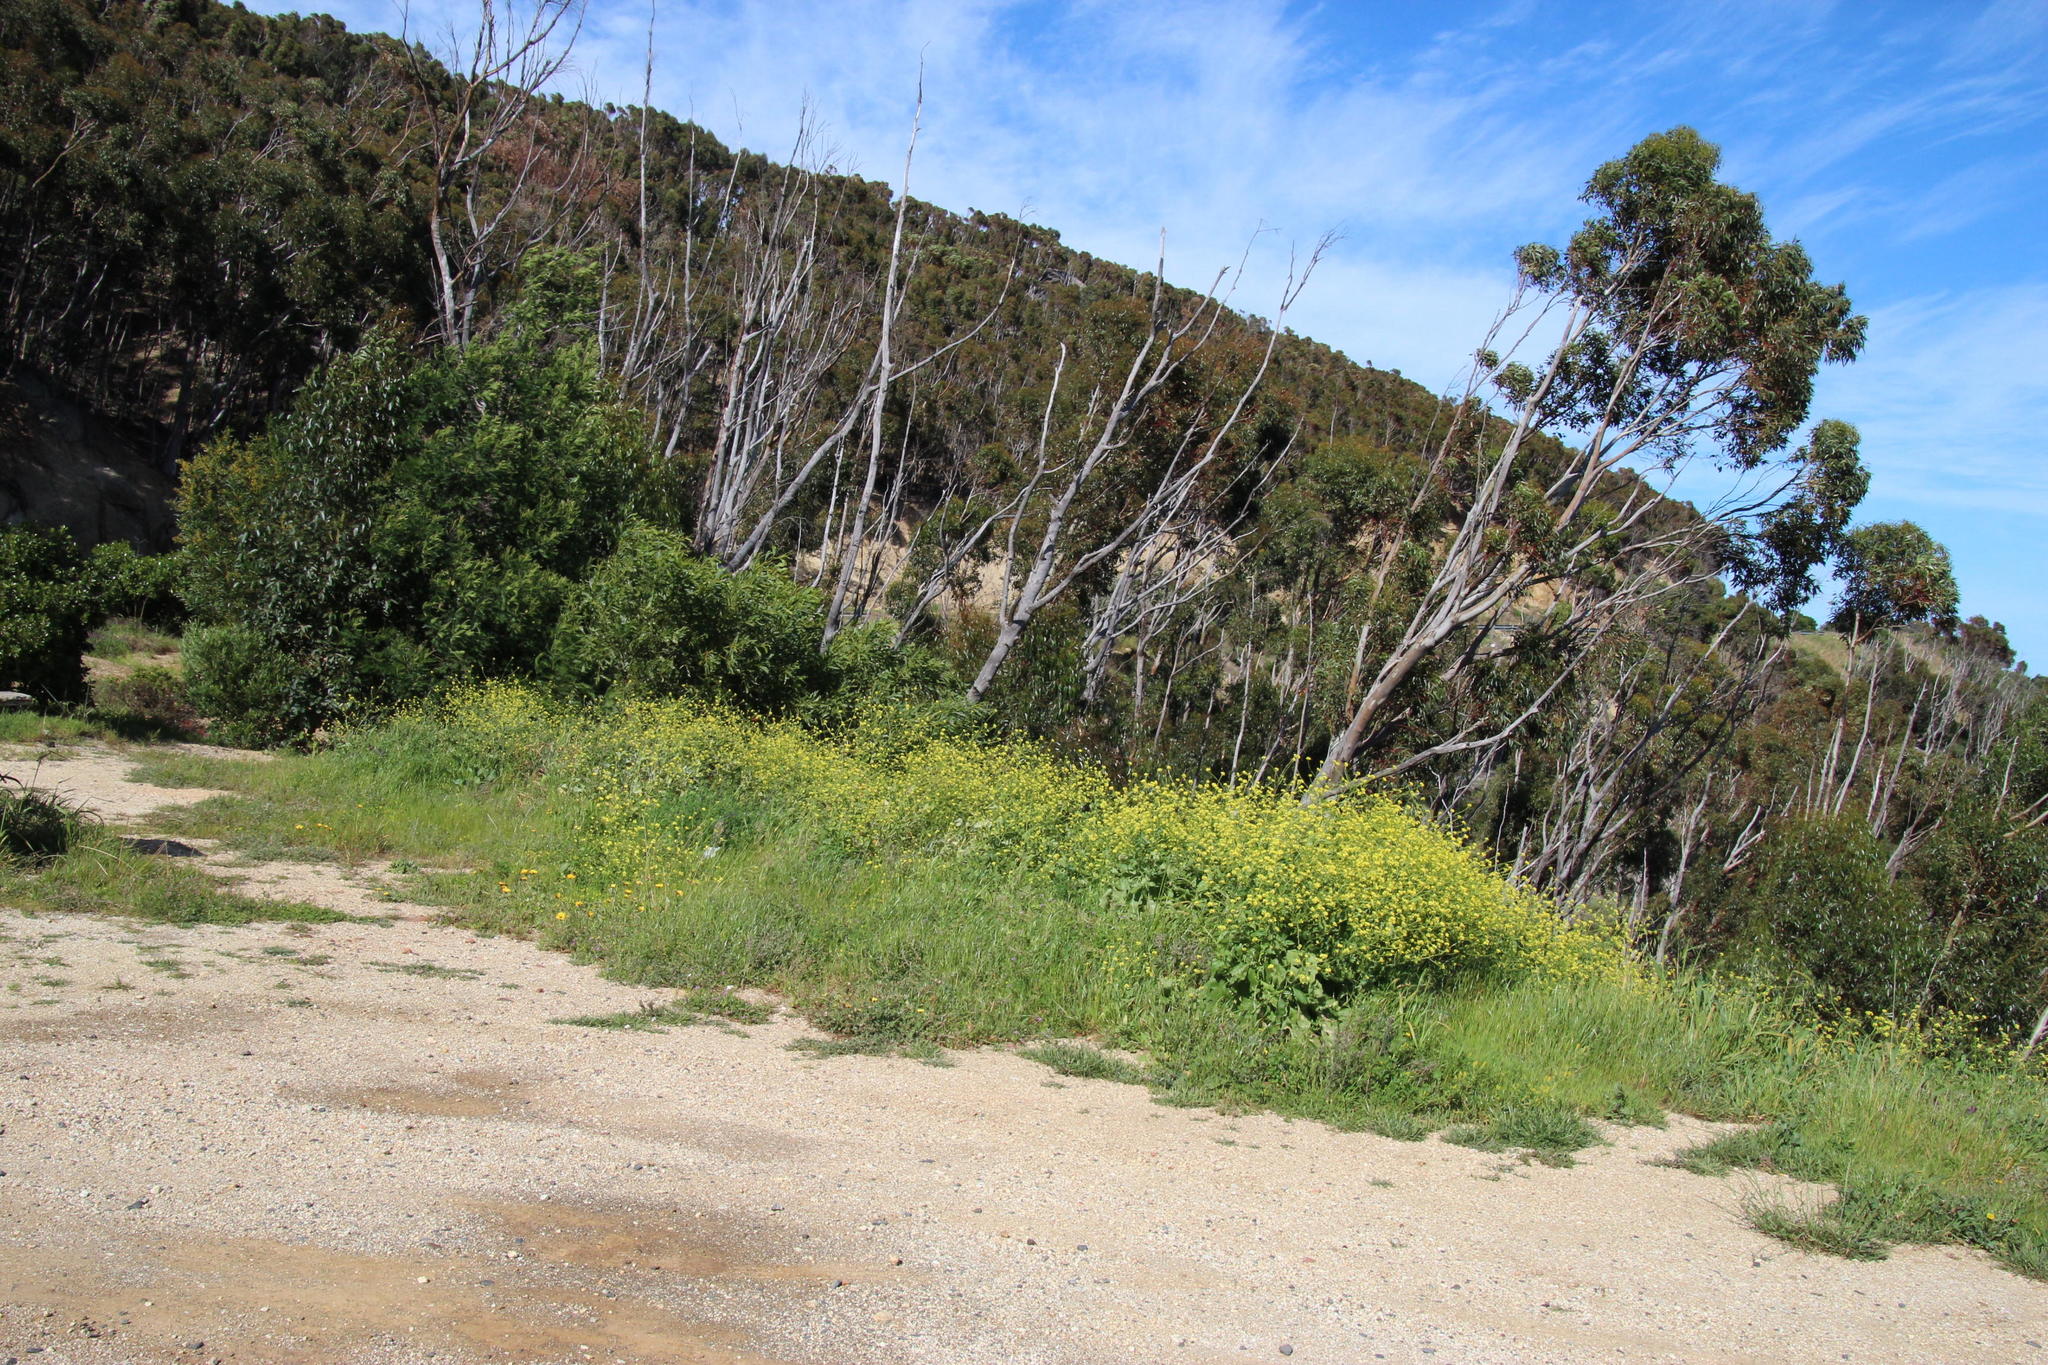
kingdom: Plantae
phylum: Tracheophyta
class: Magnoliopsida
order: Brassicales
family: Brassicaceae
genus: Rapistrum
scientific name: Rapistrum rugosum
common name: Annual bastardcabbage
